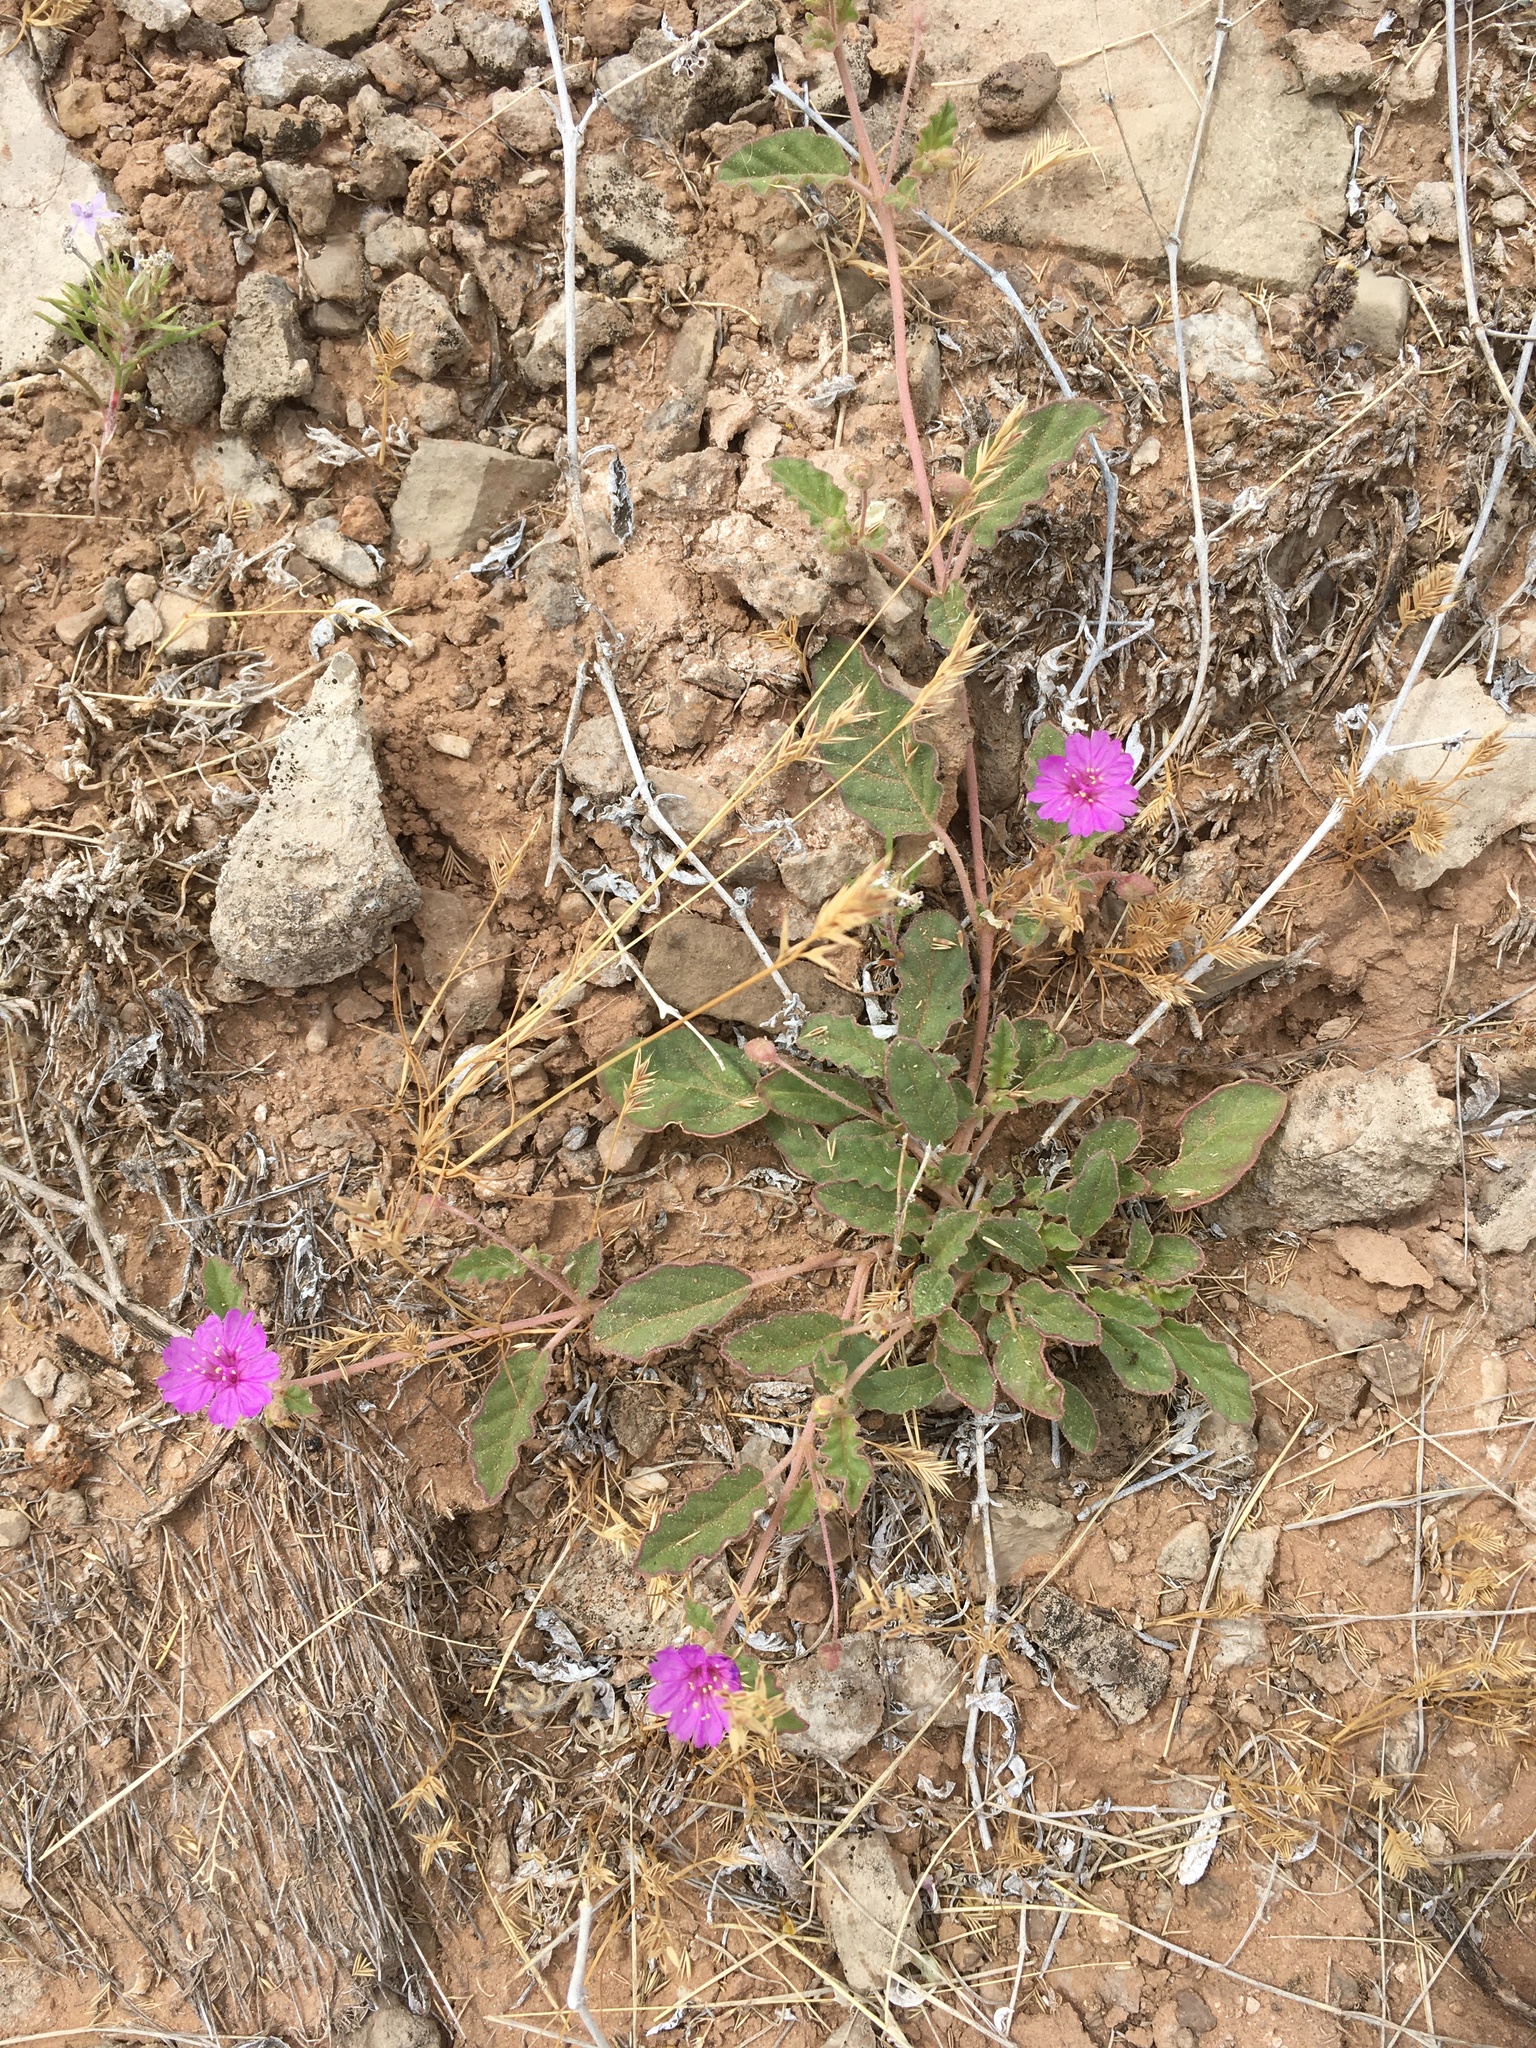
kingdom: Plantae
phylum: Tracheophyta
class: Magnoliopsida
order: Caryophyllales
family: Nyctaginaceae
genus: Allionia
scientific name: Allionia incarnata
